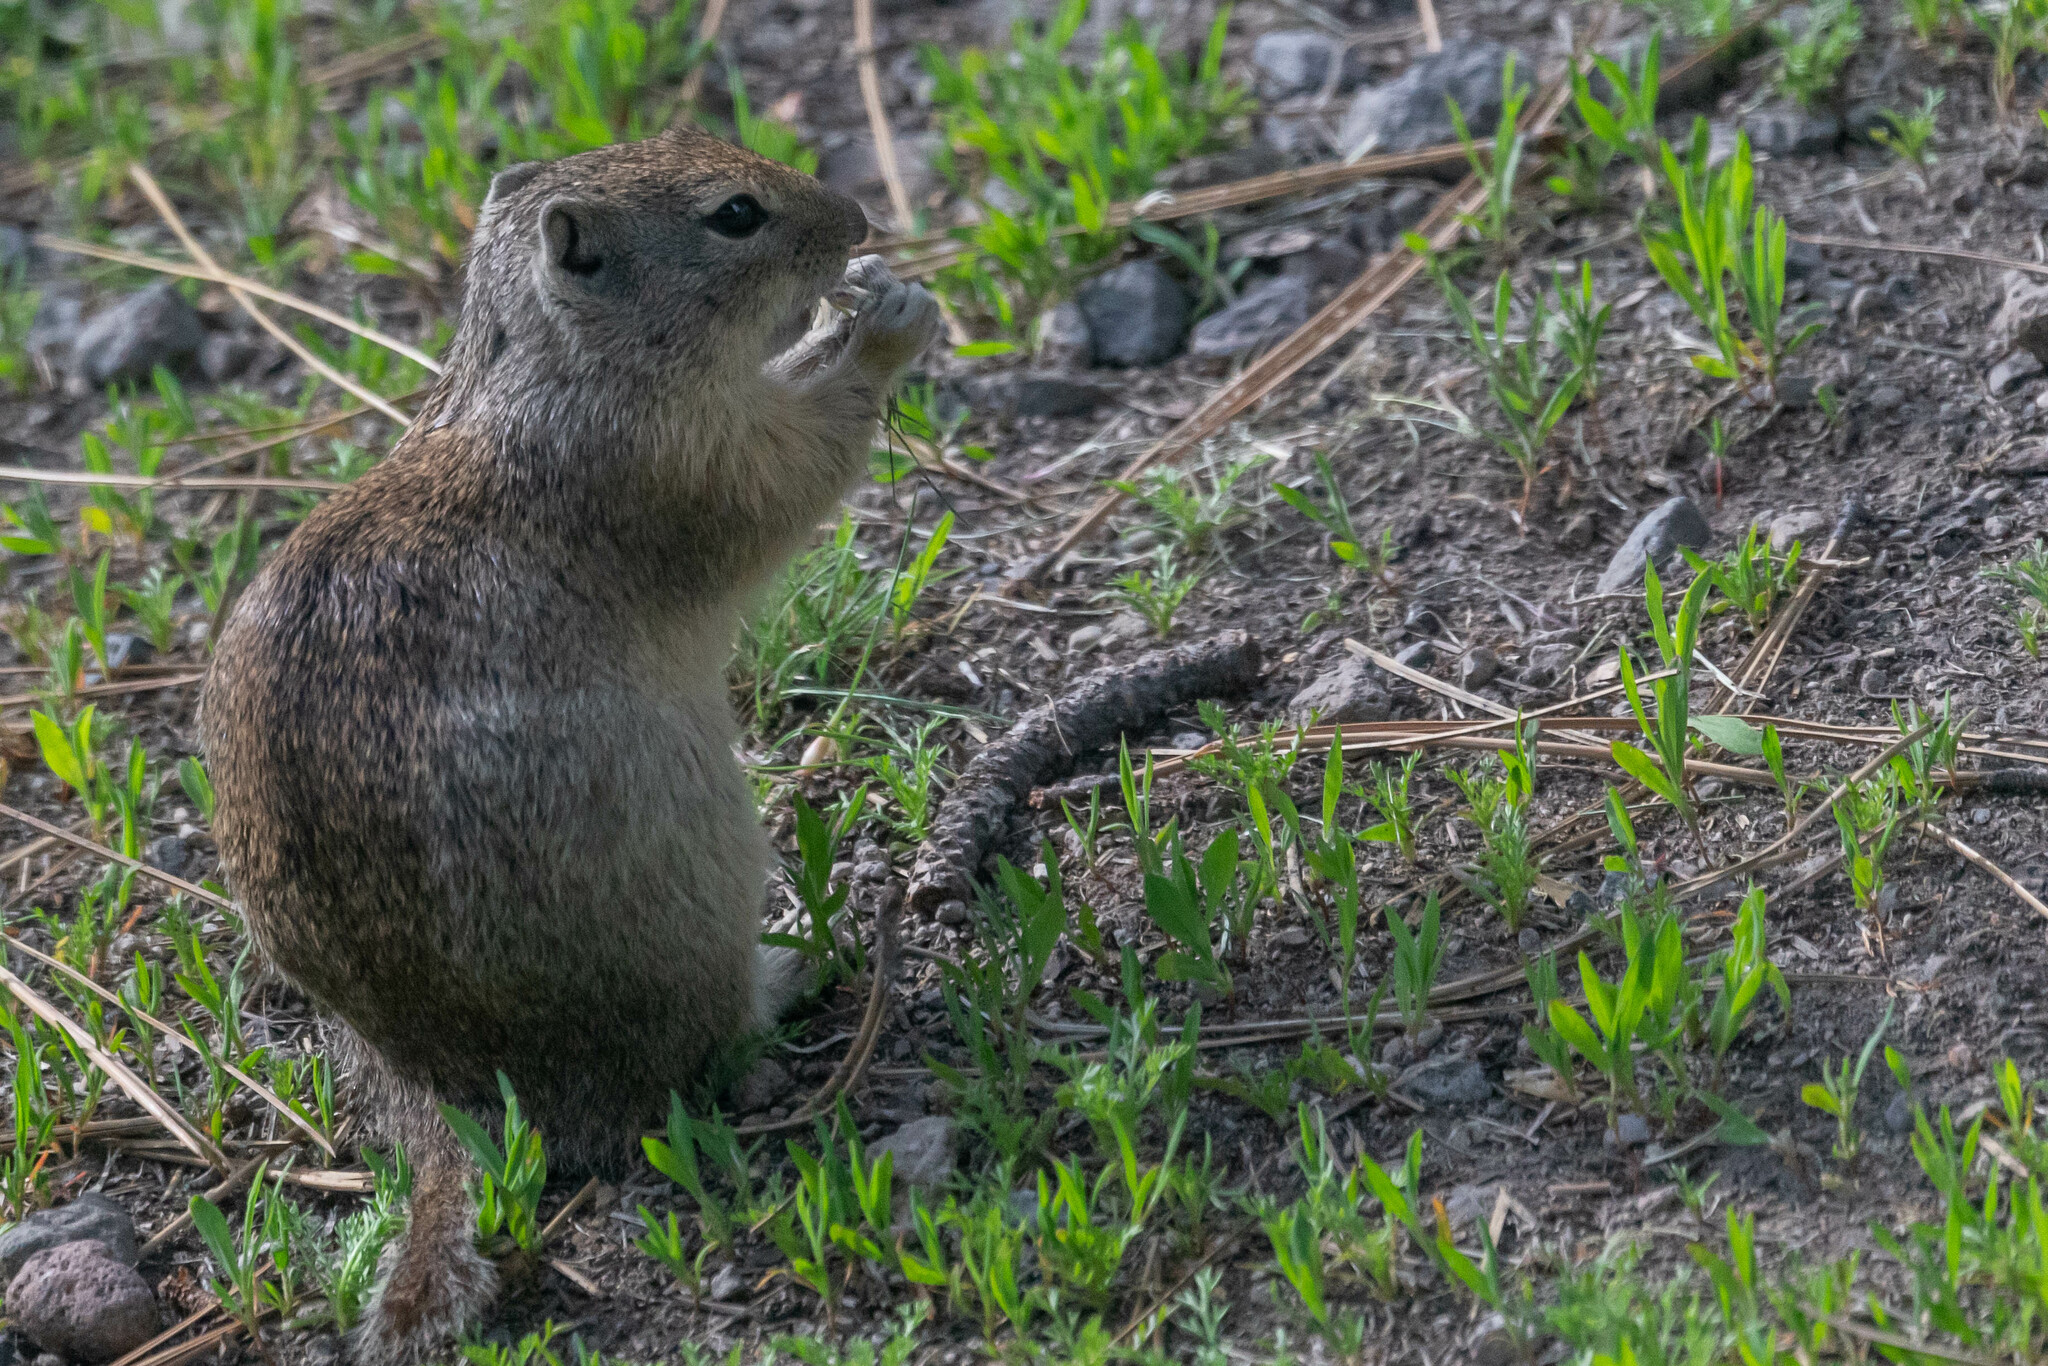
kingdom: Animalia
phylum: Chordata
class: Mammalia
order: Rodentia
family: Sciuridae
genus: Urocitellus
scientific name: Urocitellus beldingi
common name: Belding's ground squirrel
